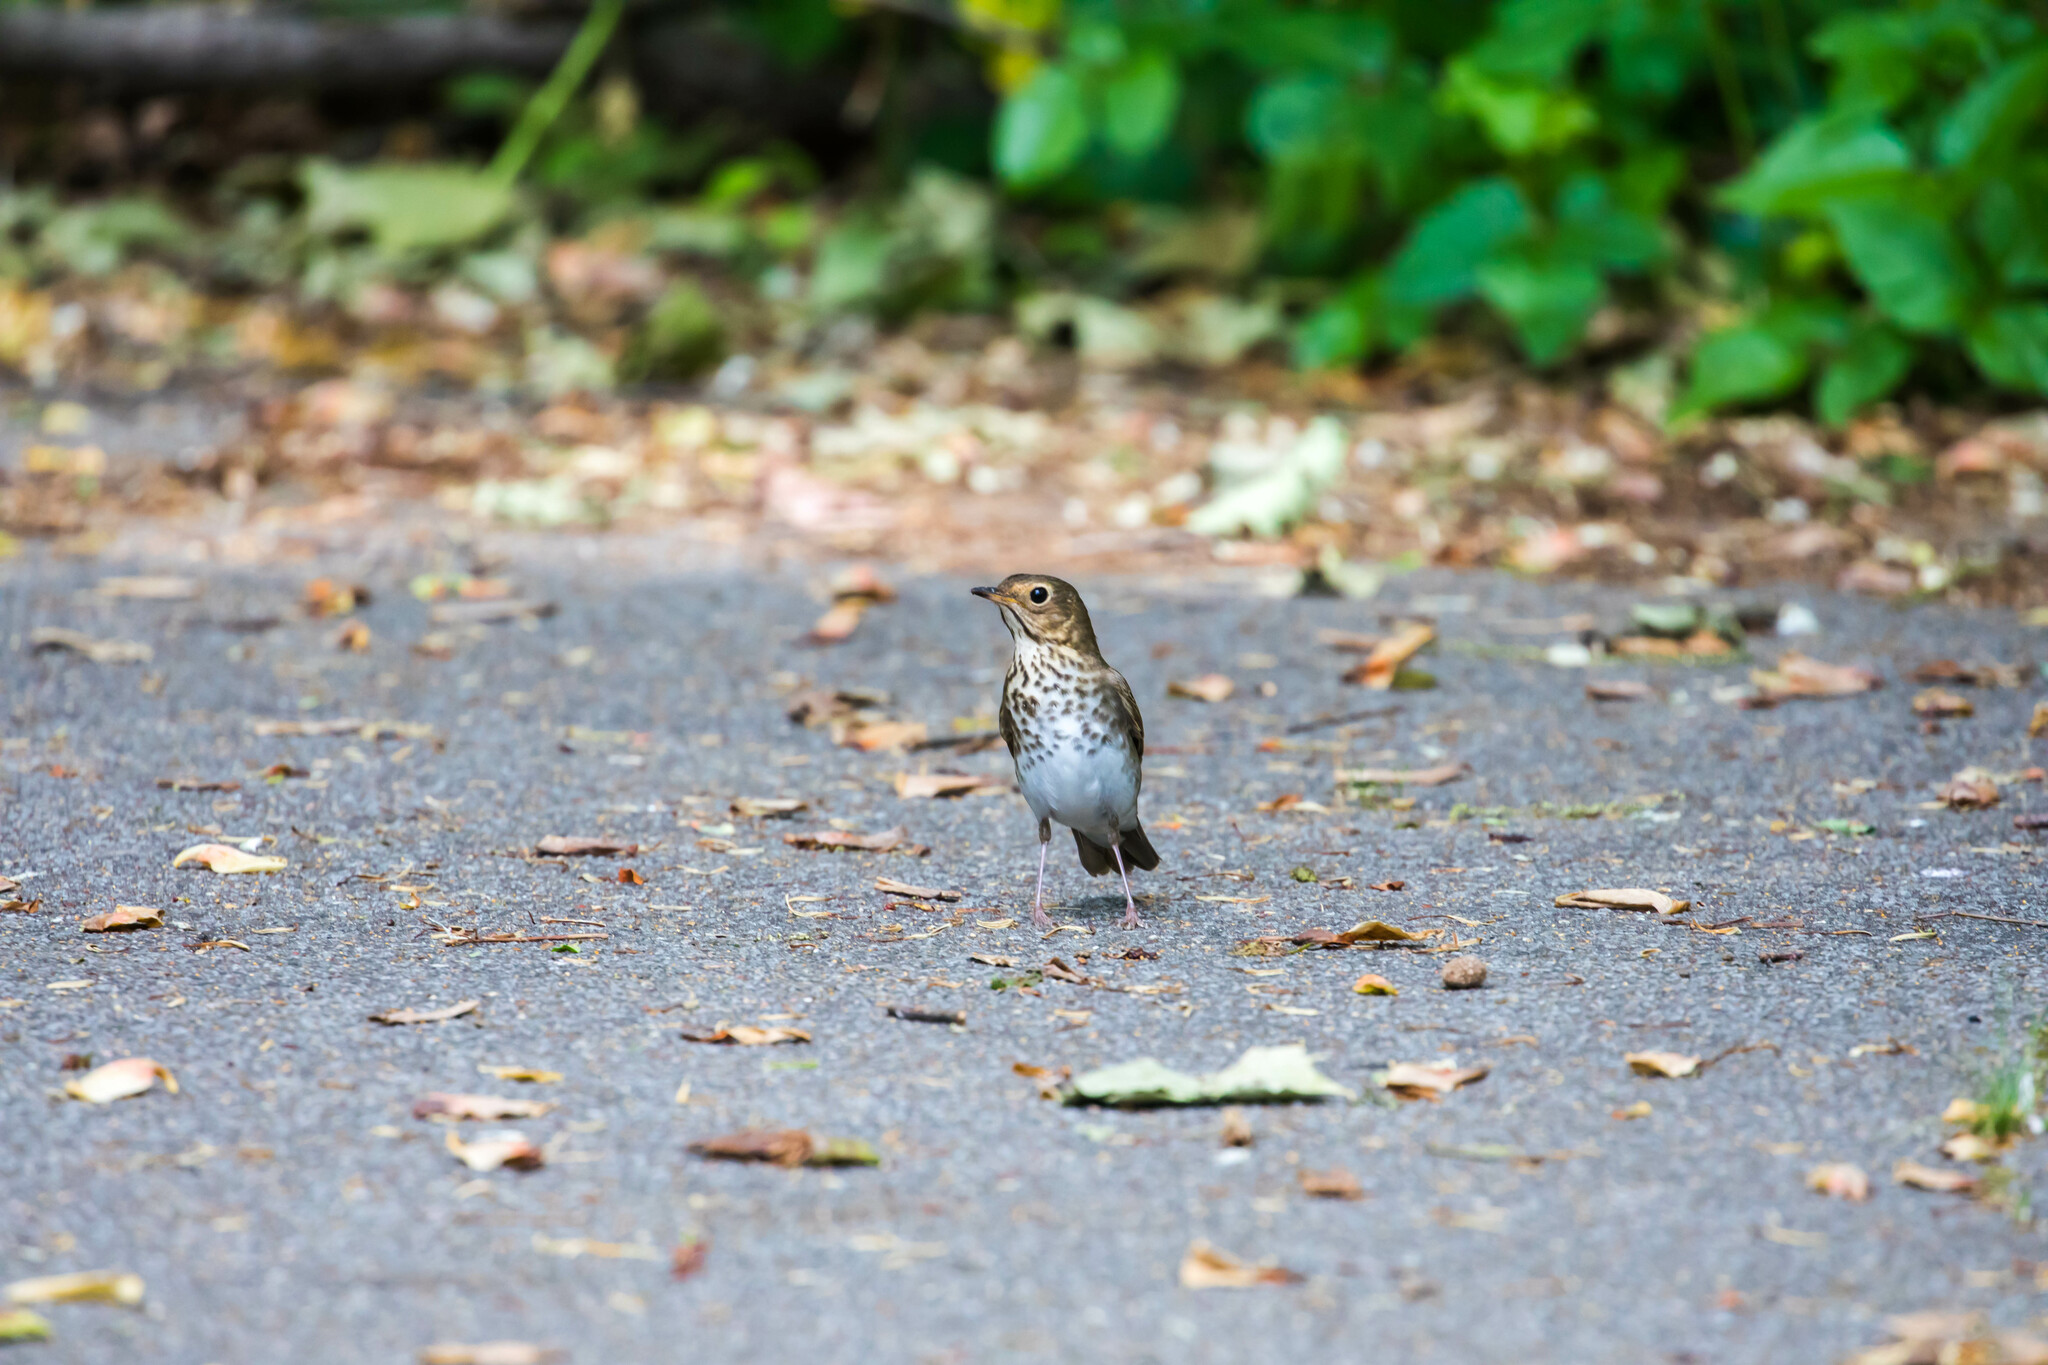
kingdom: Animalia
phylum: Chordata
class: Aves
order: Passeriformes
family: Turdidae
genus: Catharus
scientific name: Catharus ustulatus
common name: Swainson's thrush
